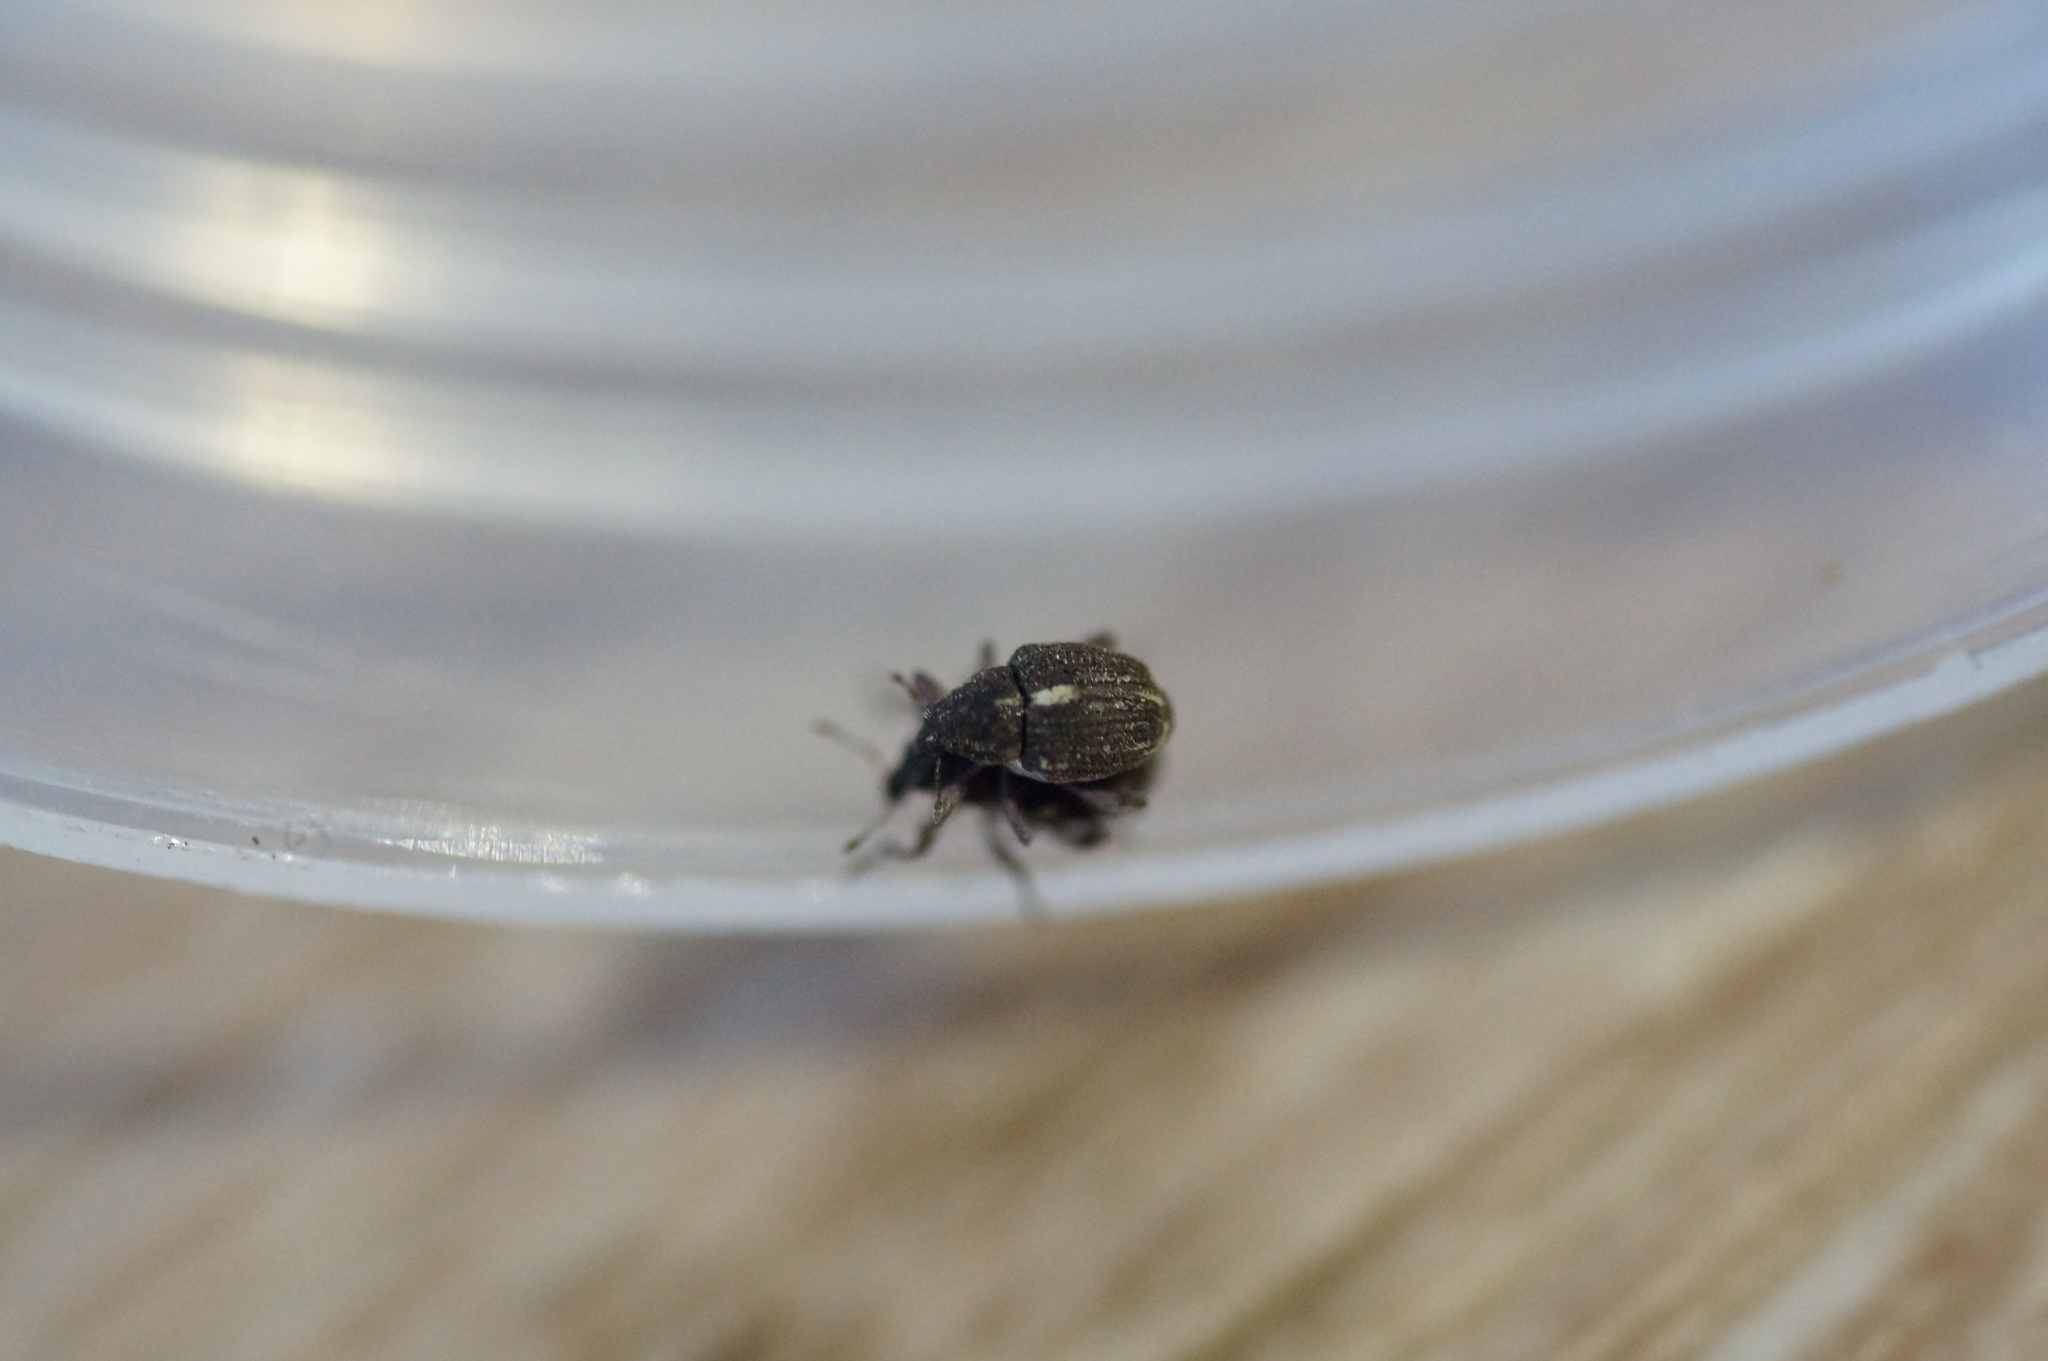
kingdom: Animalia
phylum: Arthropoda
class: Insecta
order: Coleoptera
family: Curculionidae
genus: Rhinoncus
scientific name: Rhinoncus leucostigma
